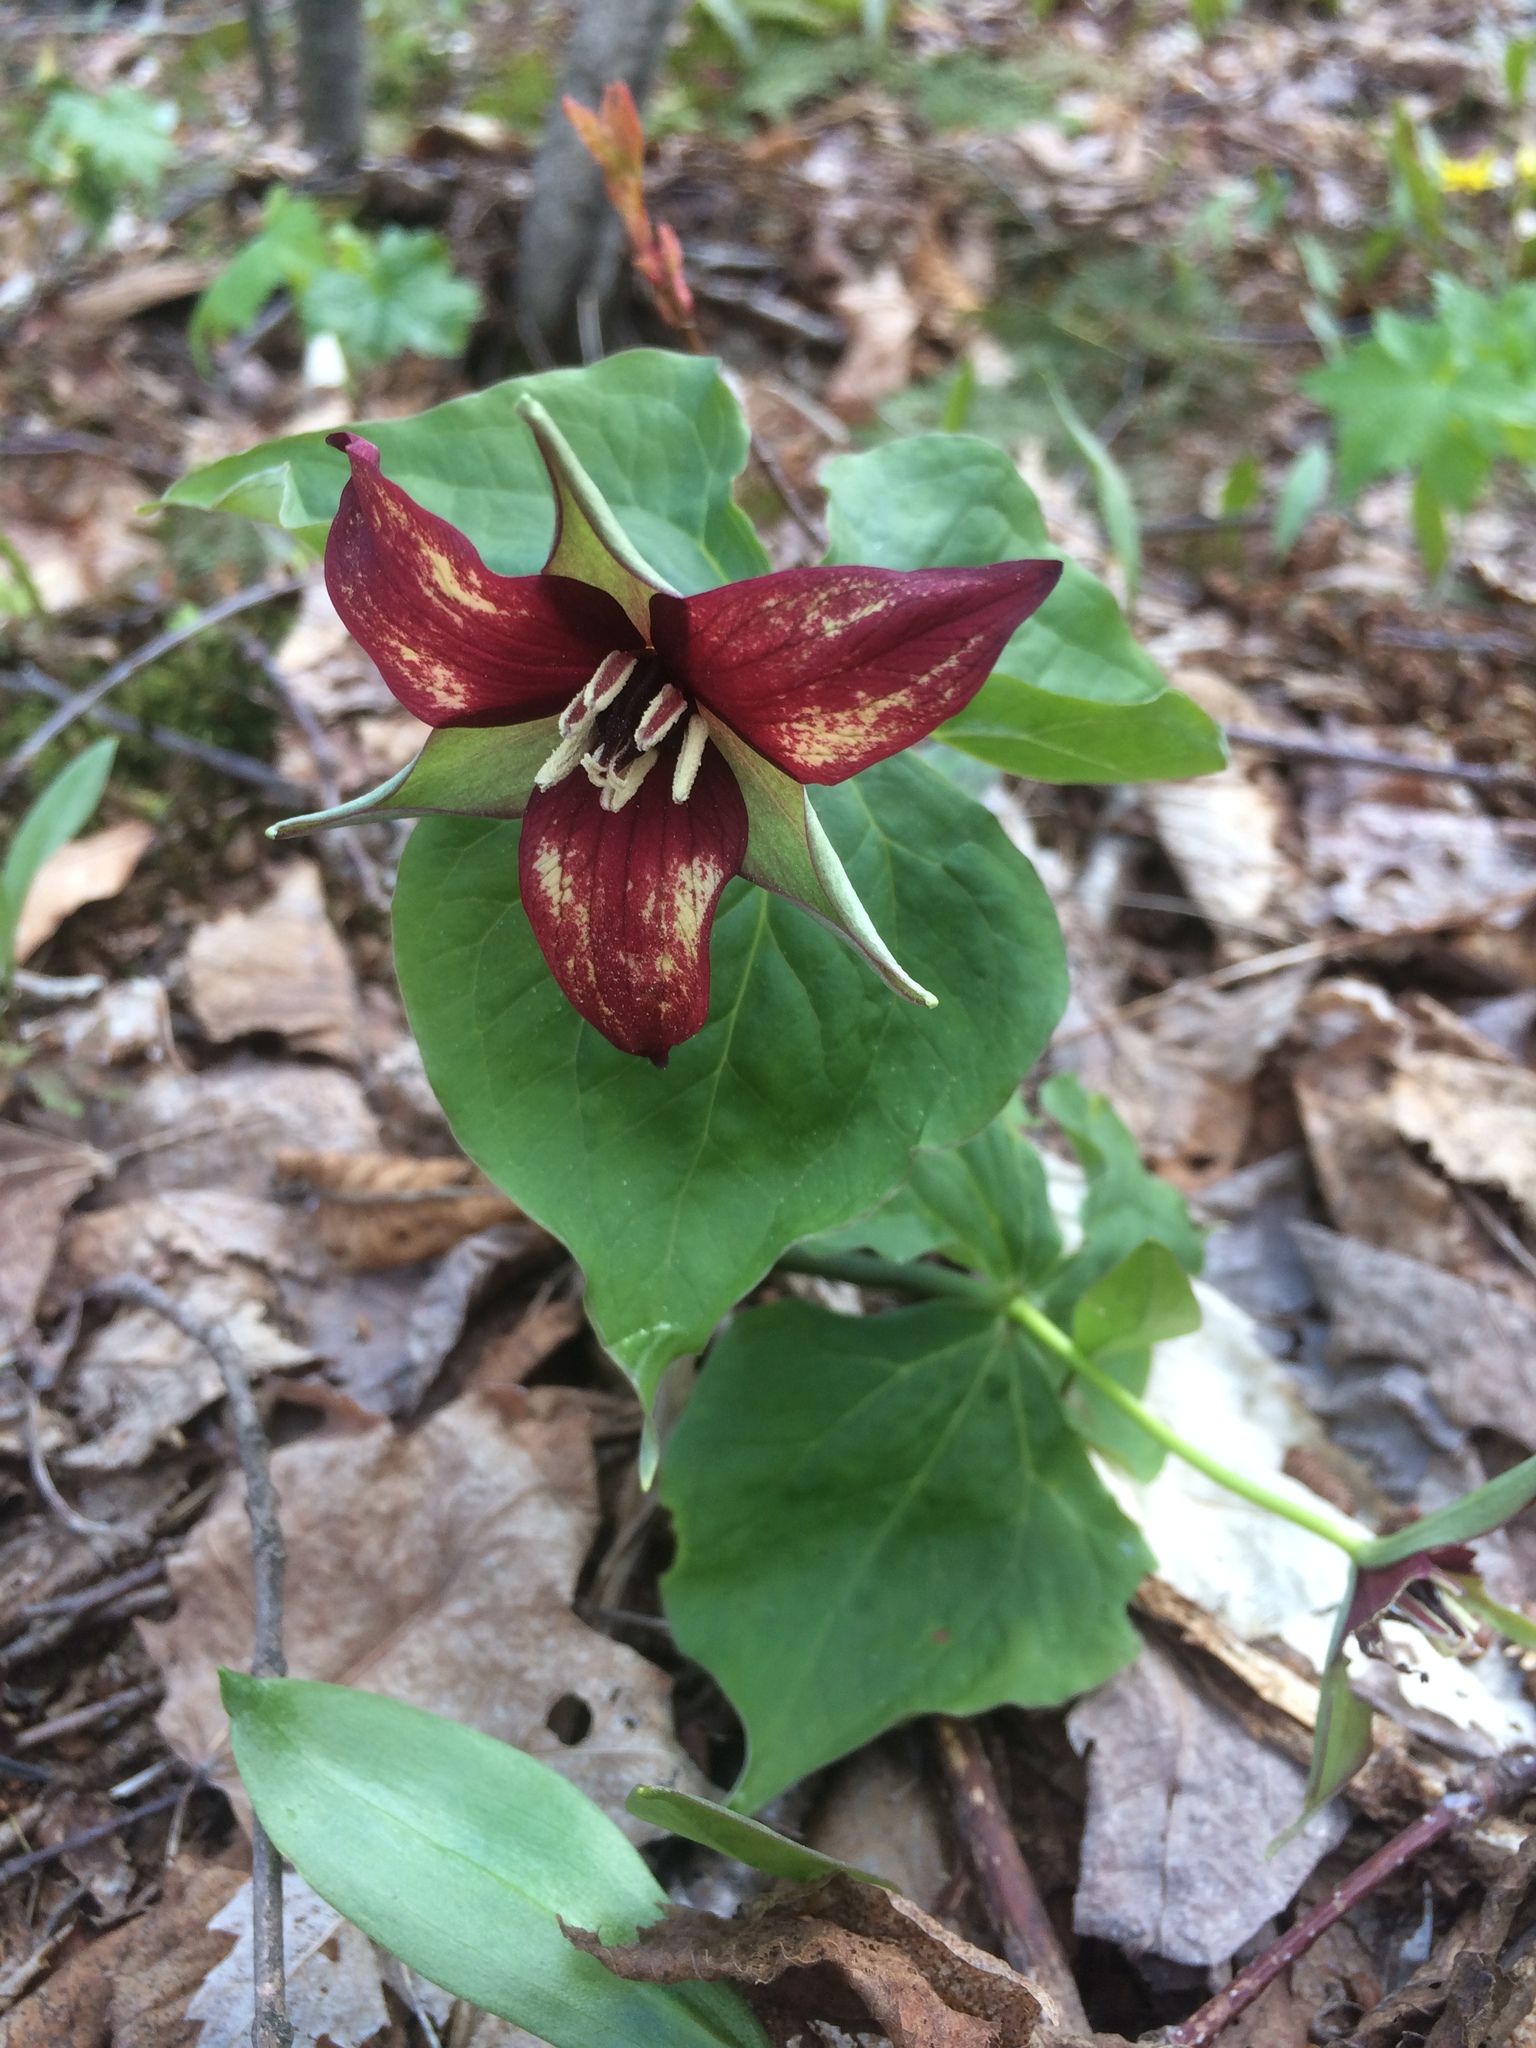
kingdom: Plantae
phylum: Tracheophyta
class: Liliopsida
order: Liliales
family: Melanthiaceae
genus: Trillium
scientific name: Trillium erectum
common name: Purple trillium
